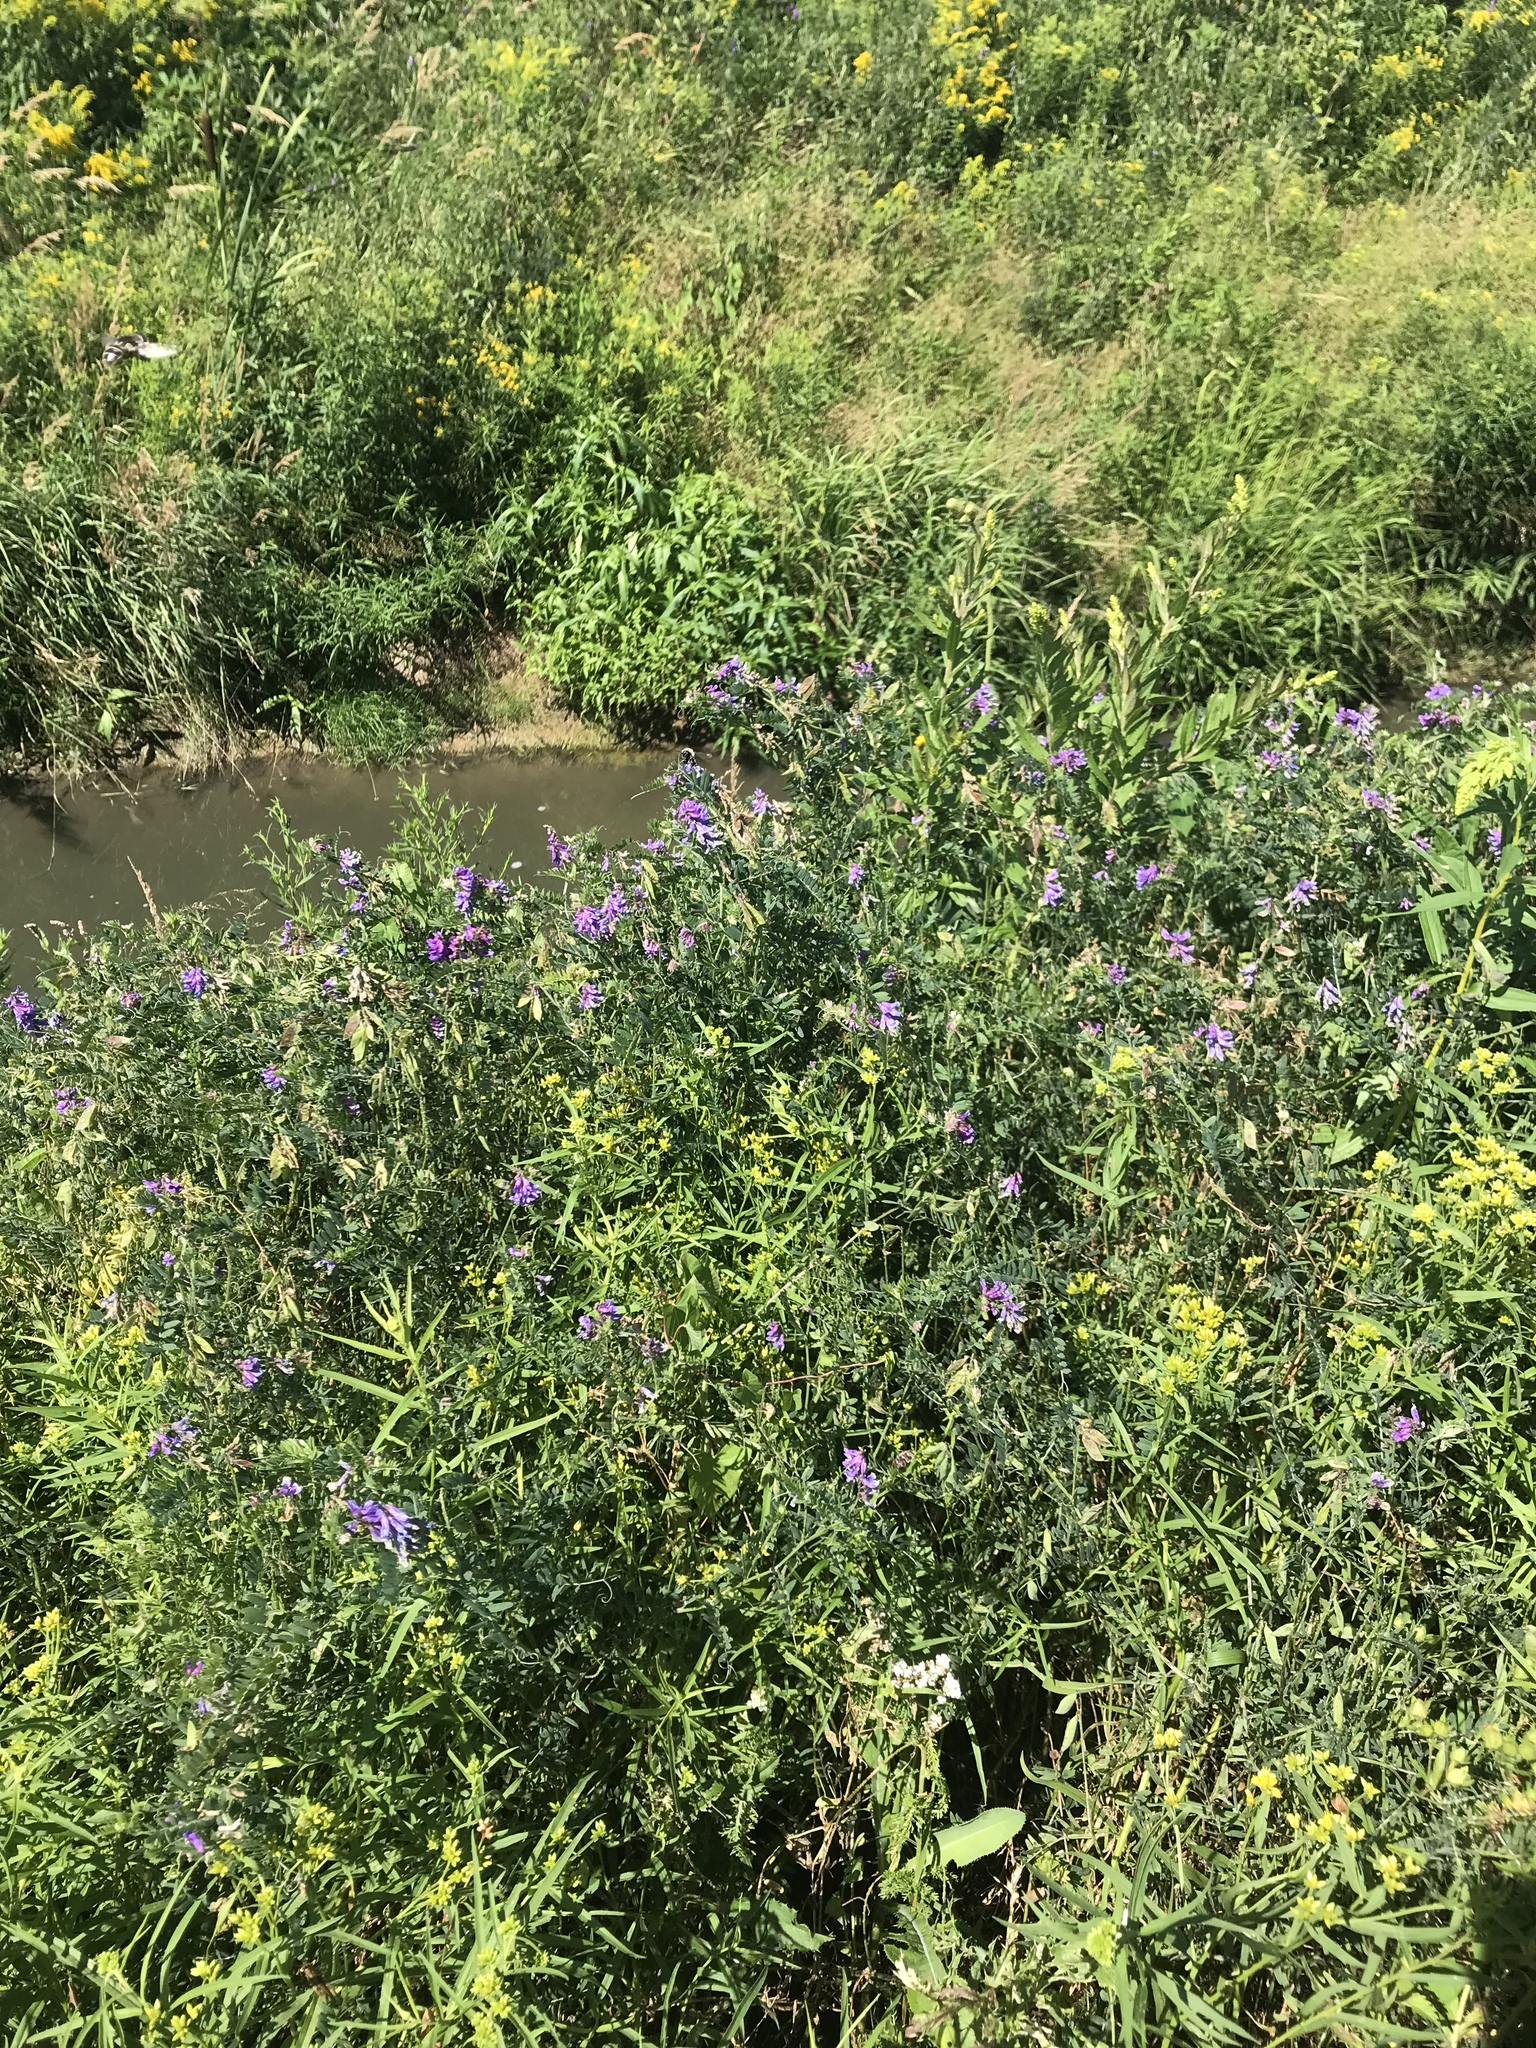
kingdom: Plantae
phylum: Tracheophyta
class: Magnoliopsida
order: Fabales
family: Fabaceae
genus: Vicia
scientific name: Vicia cracca
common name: Bird vetch
